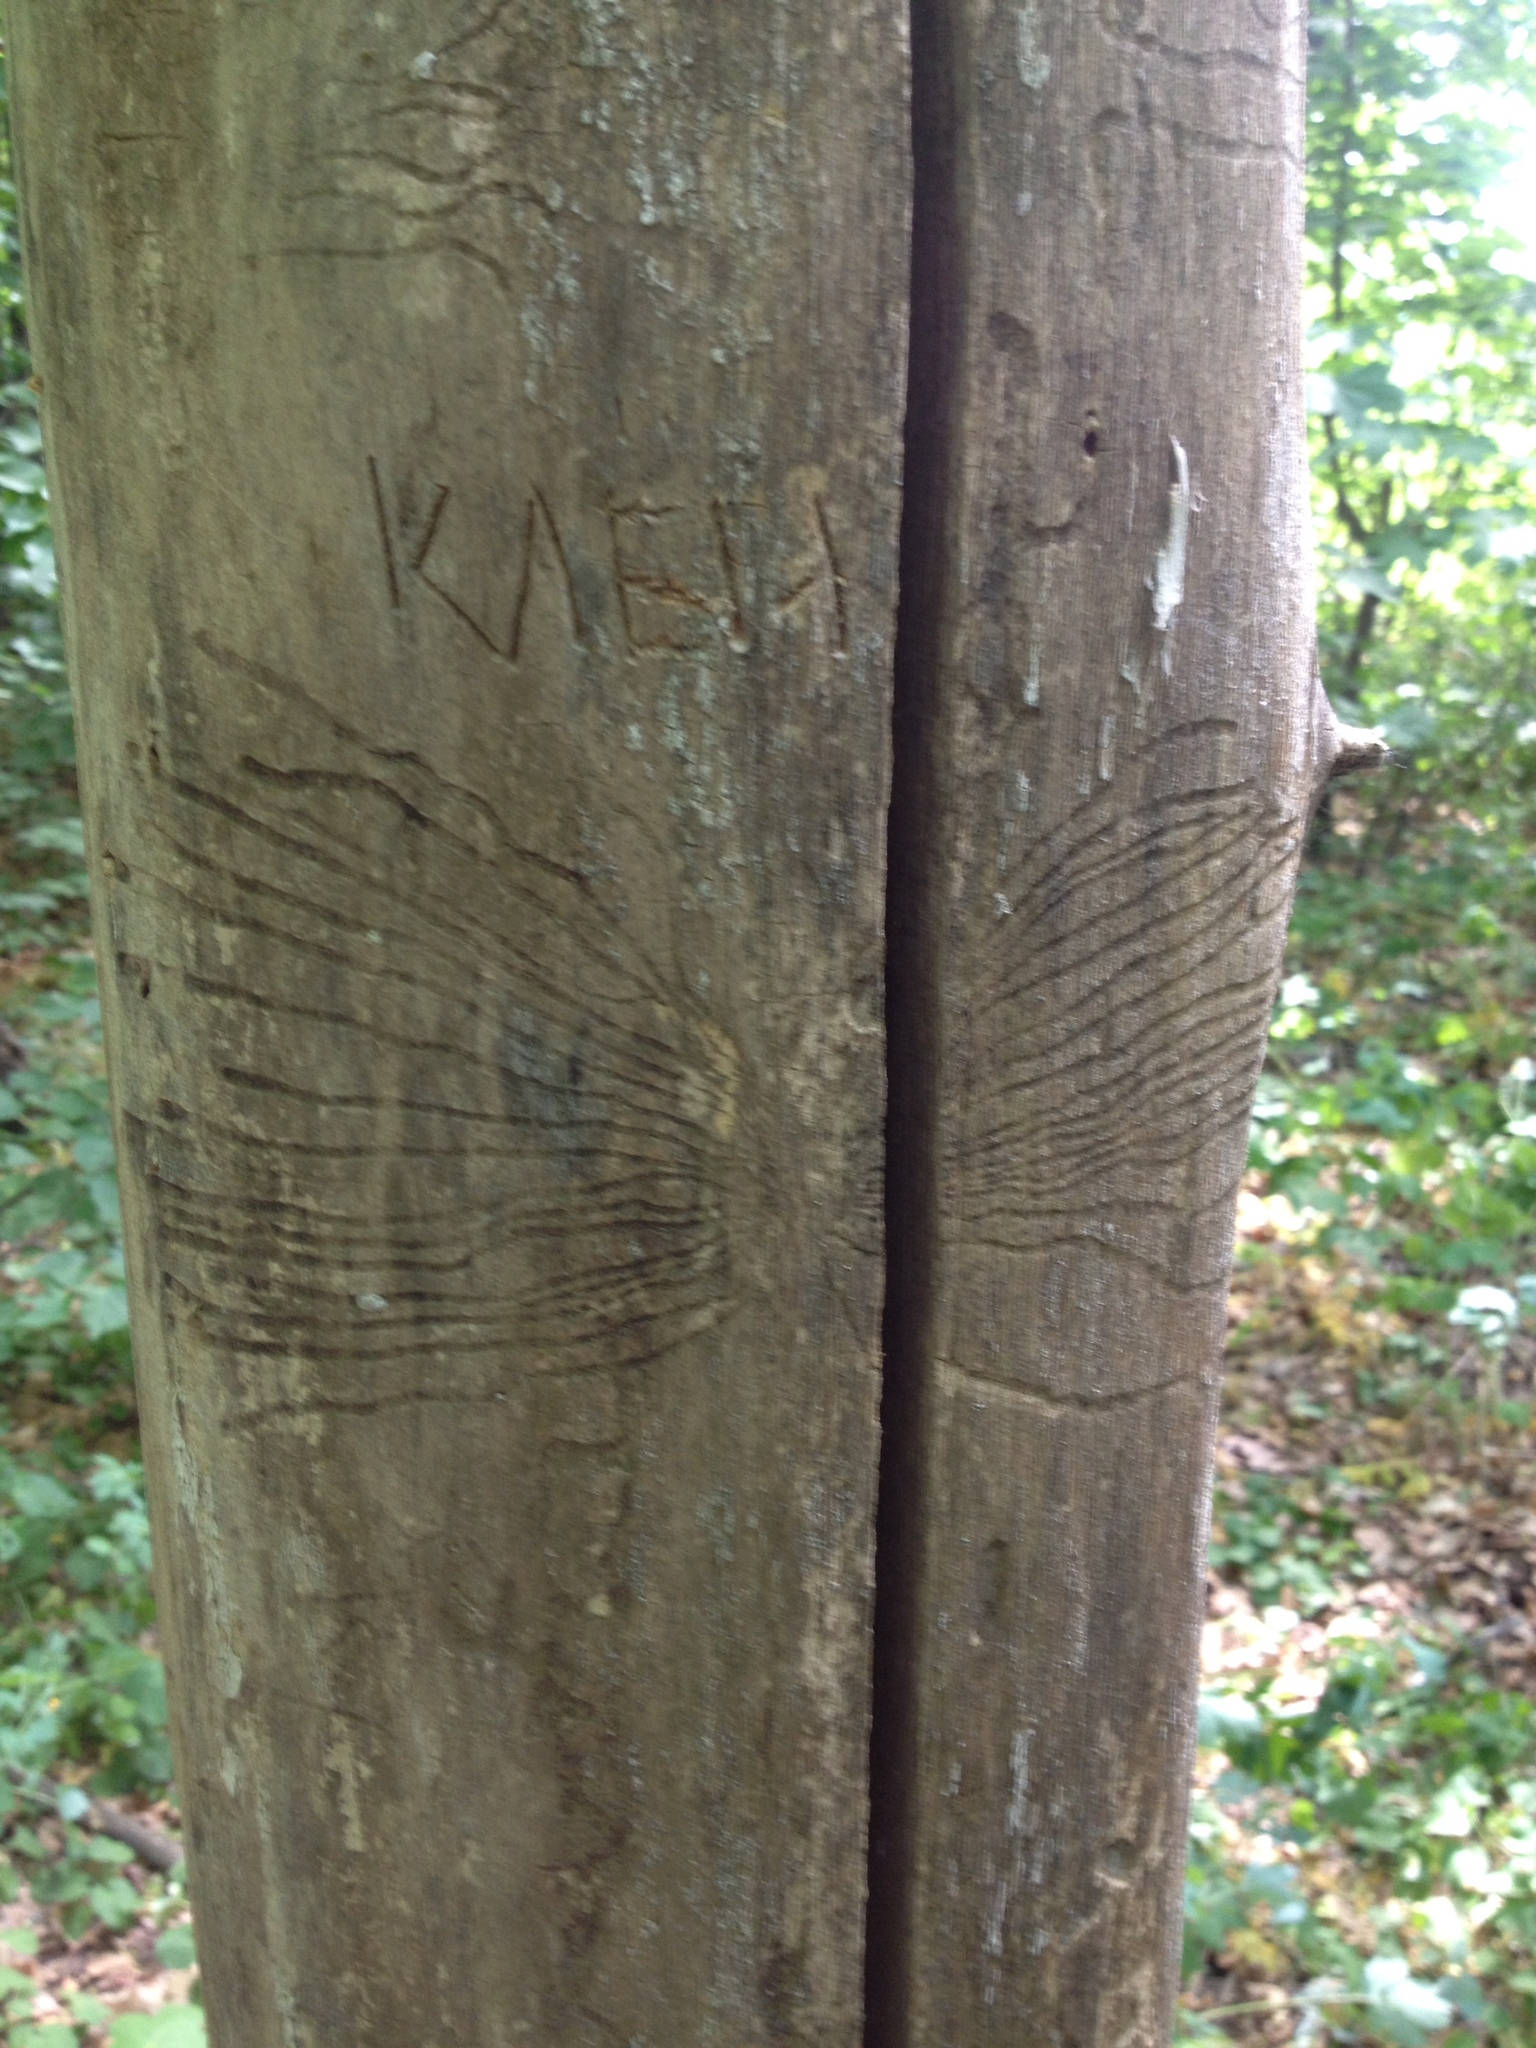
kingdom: Animalia
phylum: Arthropoda
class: Insecta
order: Coleoptera
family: Curculionidae
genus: Scolytus
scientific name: Scolytus multistriatus
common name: European elm bark beetle
